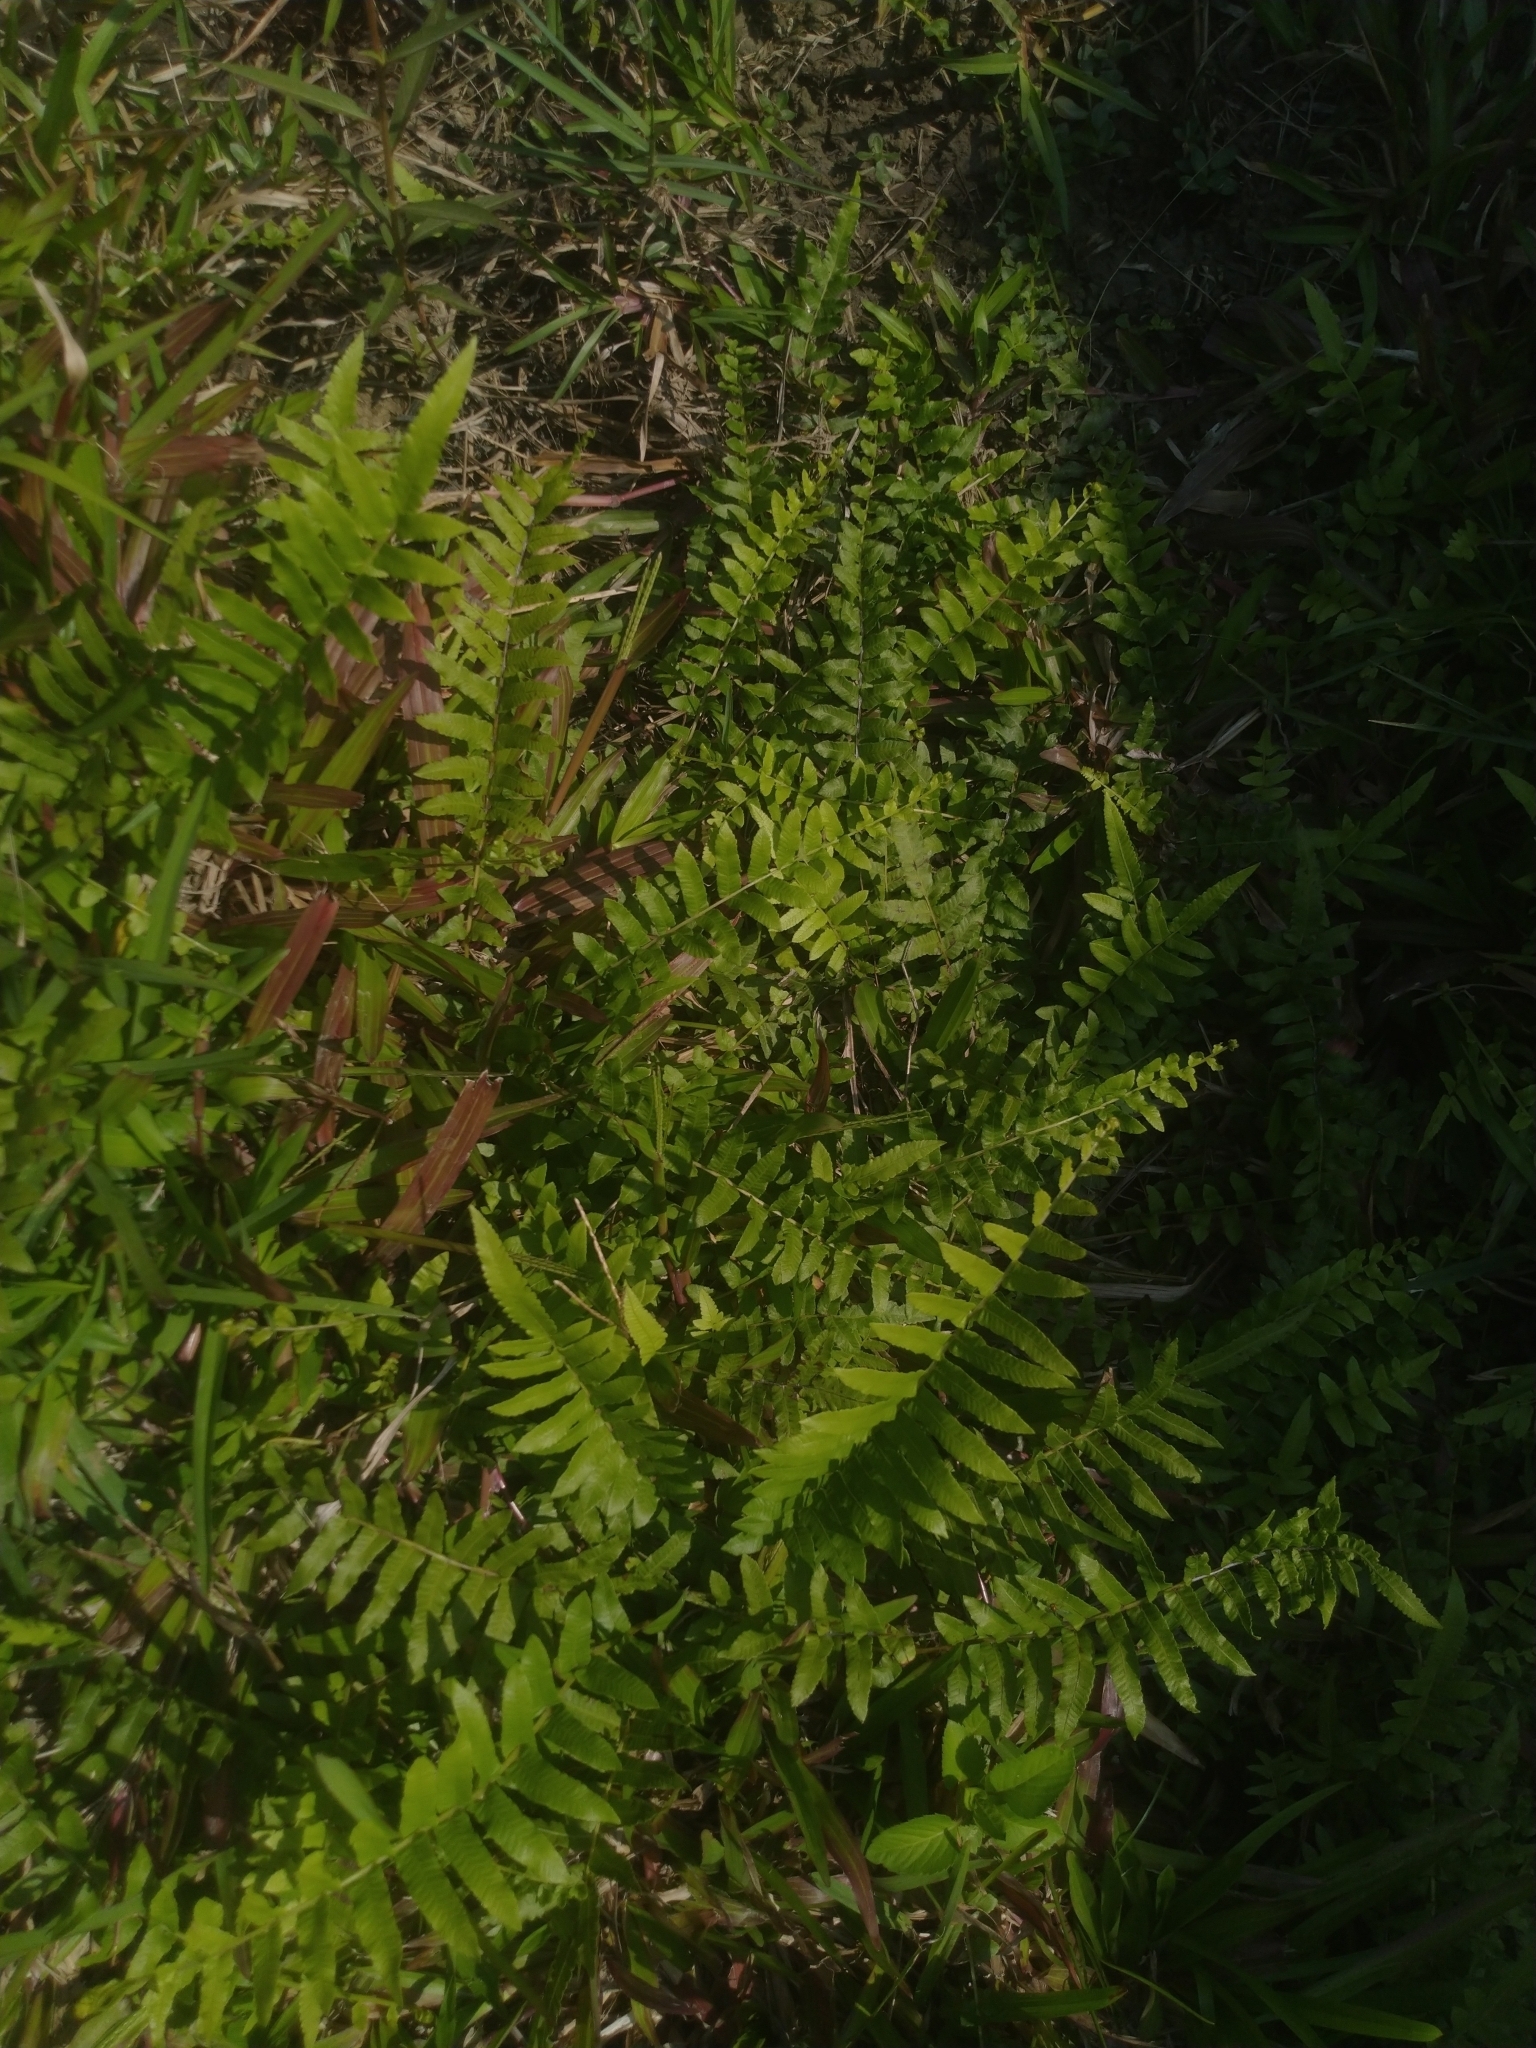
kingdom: Plantae
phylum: Tracheophyta
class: Polypodiopsida
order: Polypodiales
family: Thelypteridaceae
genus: Ampelopteris
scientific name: Ampelopteris prolifera
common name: Riverine scrambler
